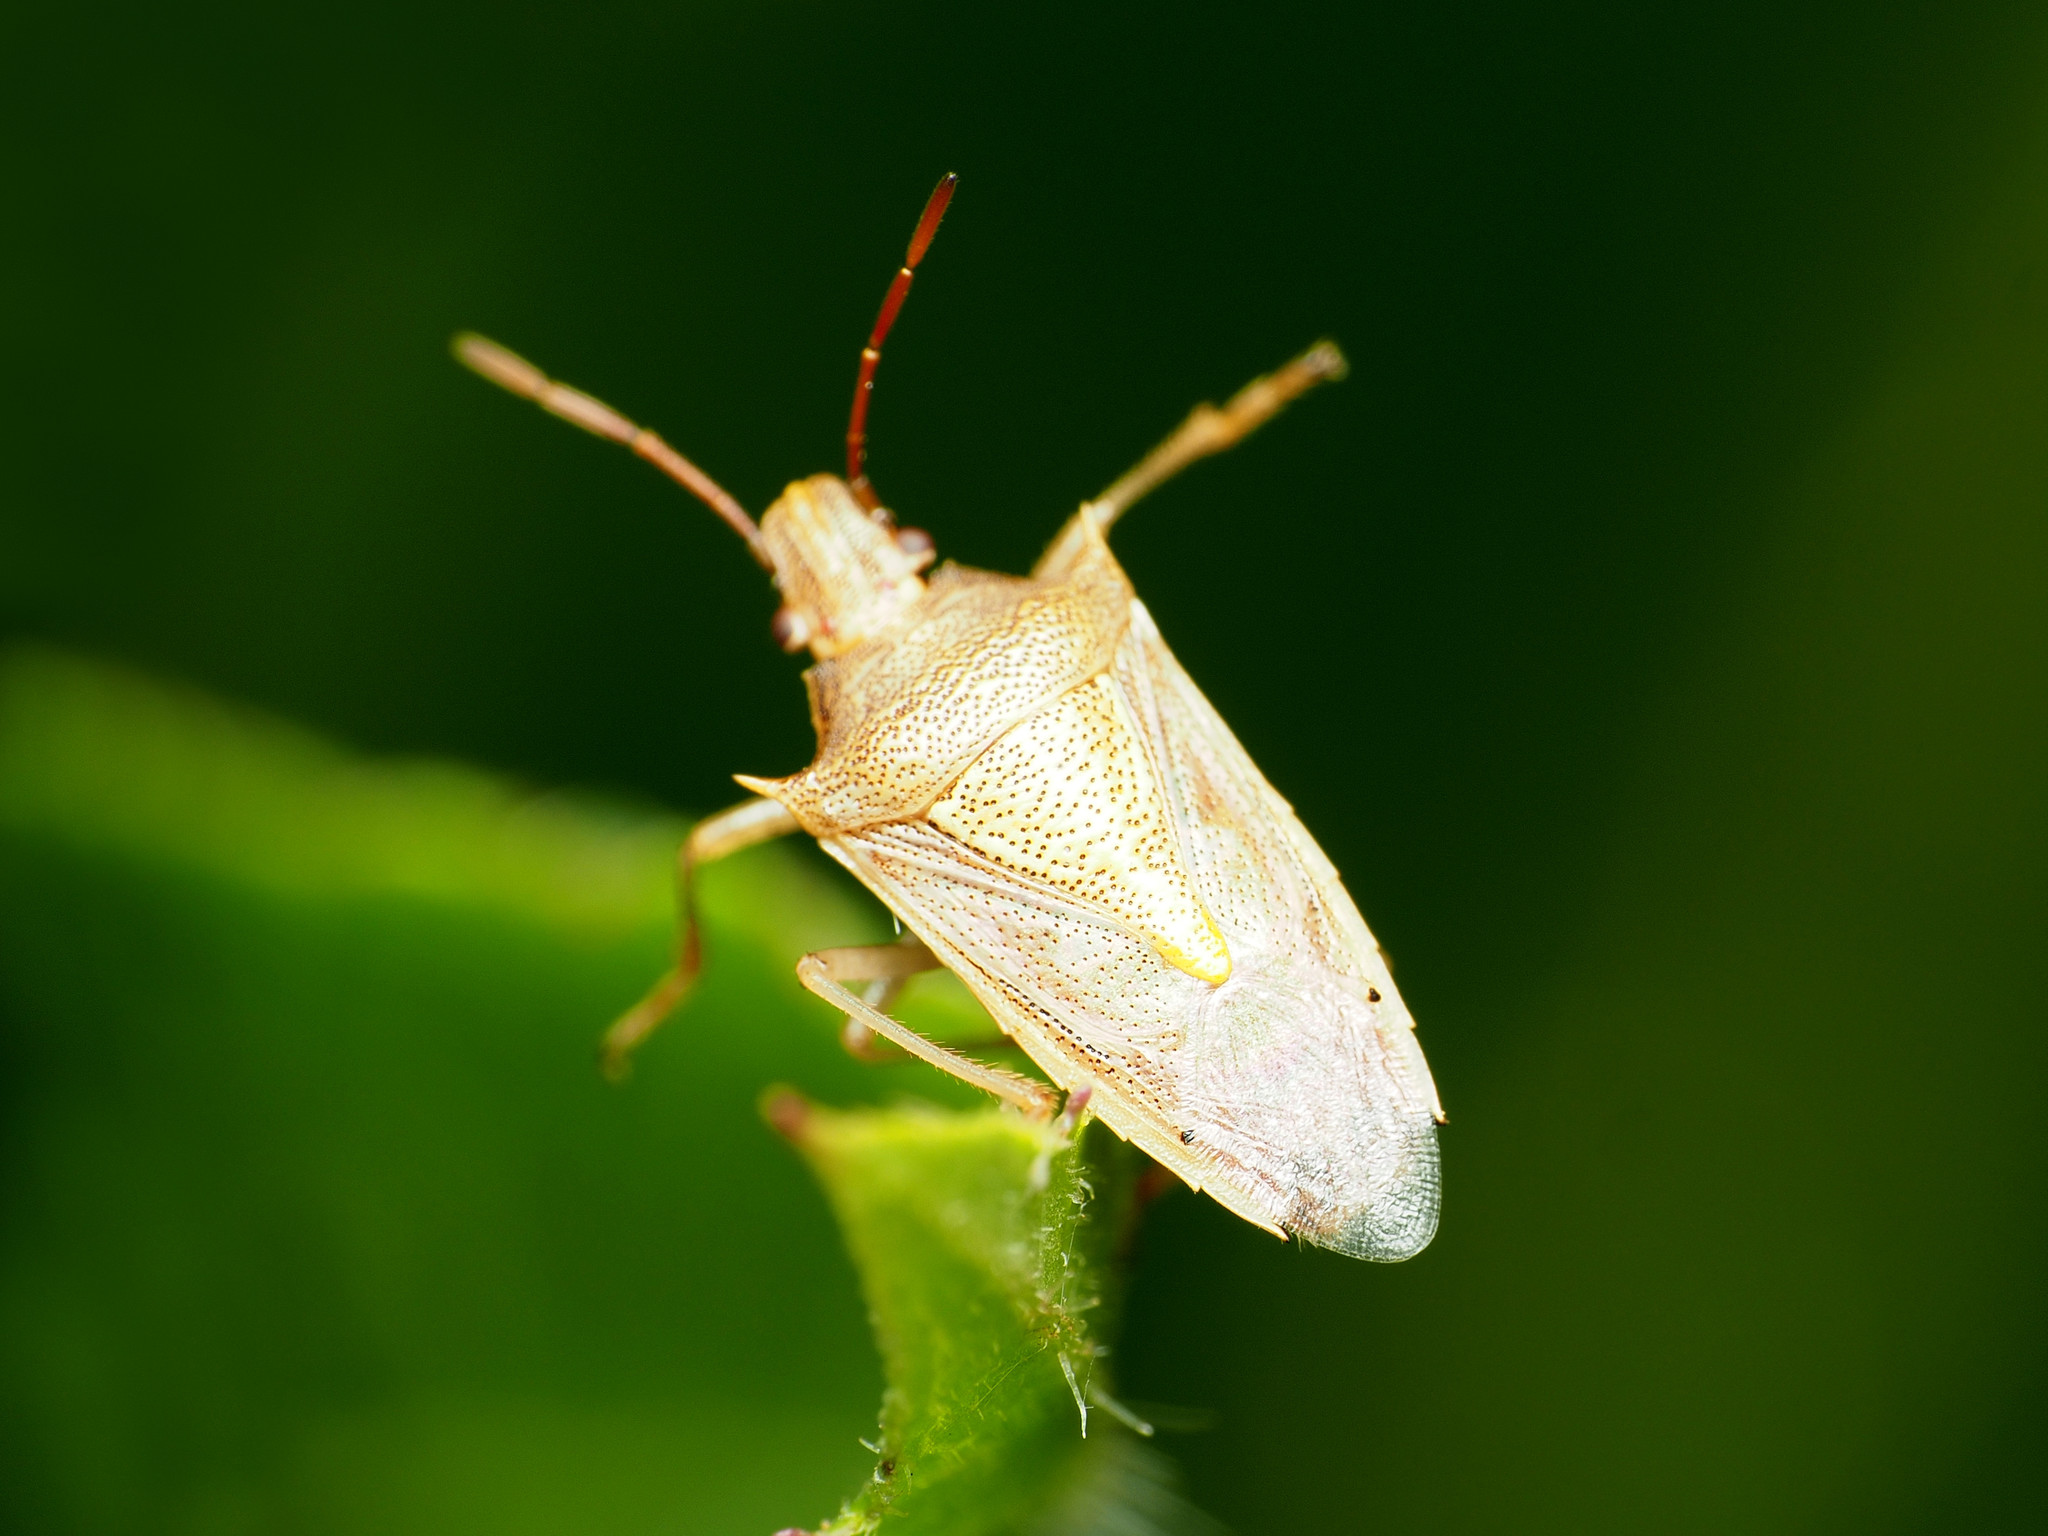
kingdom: Animalia
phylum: Arthropoda
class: Insecta
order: Hemiptera
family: Pentatomidae
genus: Oebalus
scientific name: Oebalus pugnax
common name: Rice stink bug
